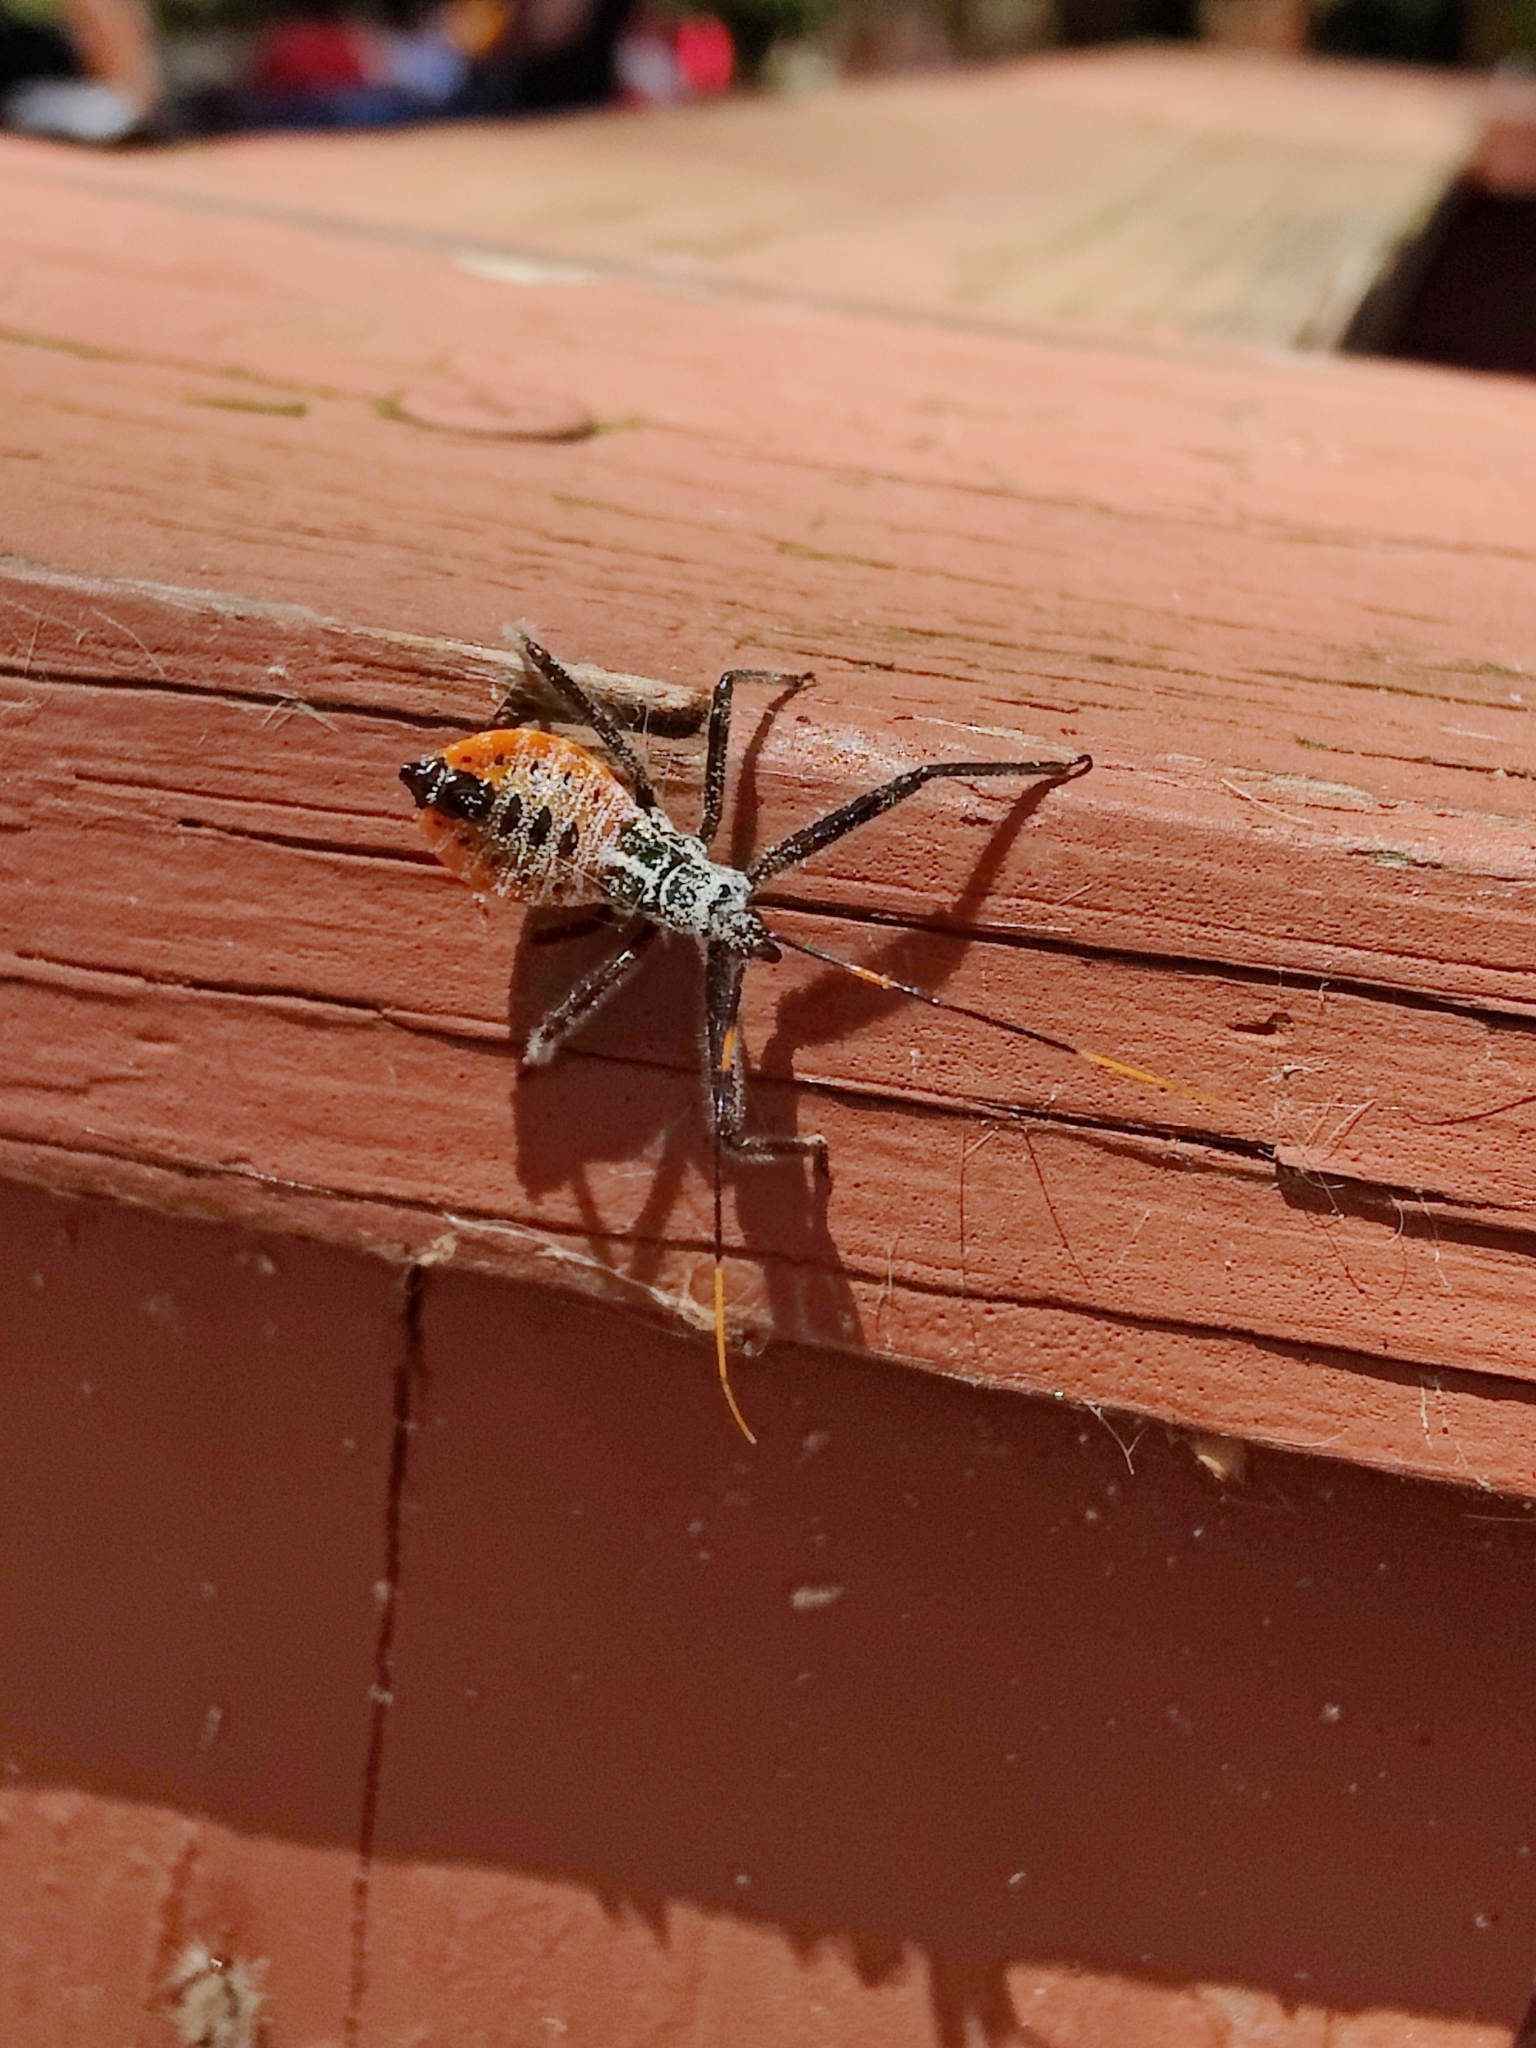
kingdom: Animalia
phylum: Arthropoda
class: Insecta
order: Hemiptera
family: Reduviidae
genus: Arilus
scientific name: Arilus cristatus
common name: North american wheel bug
